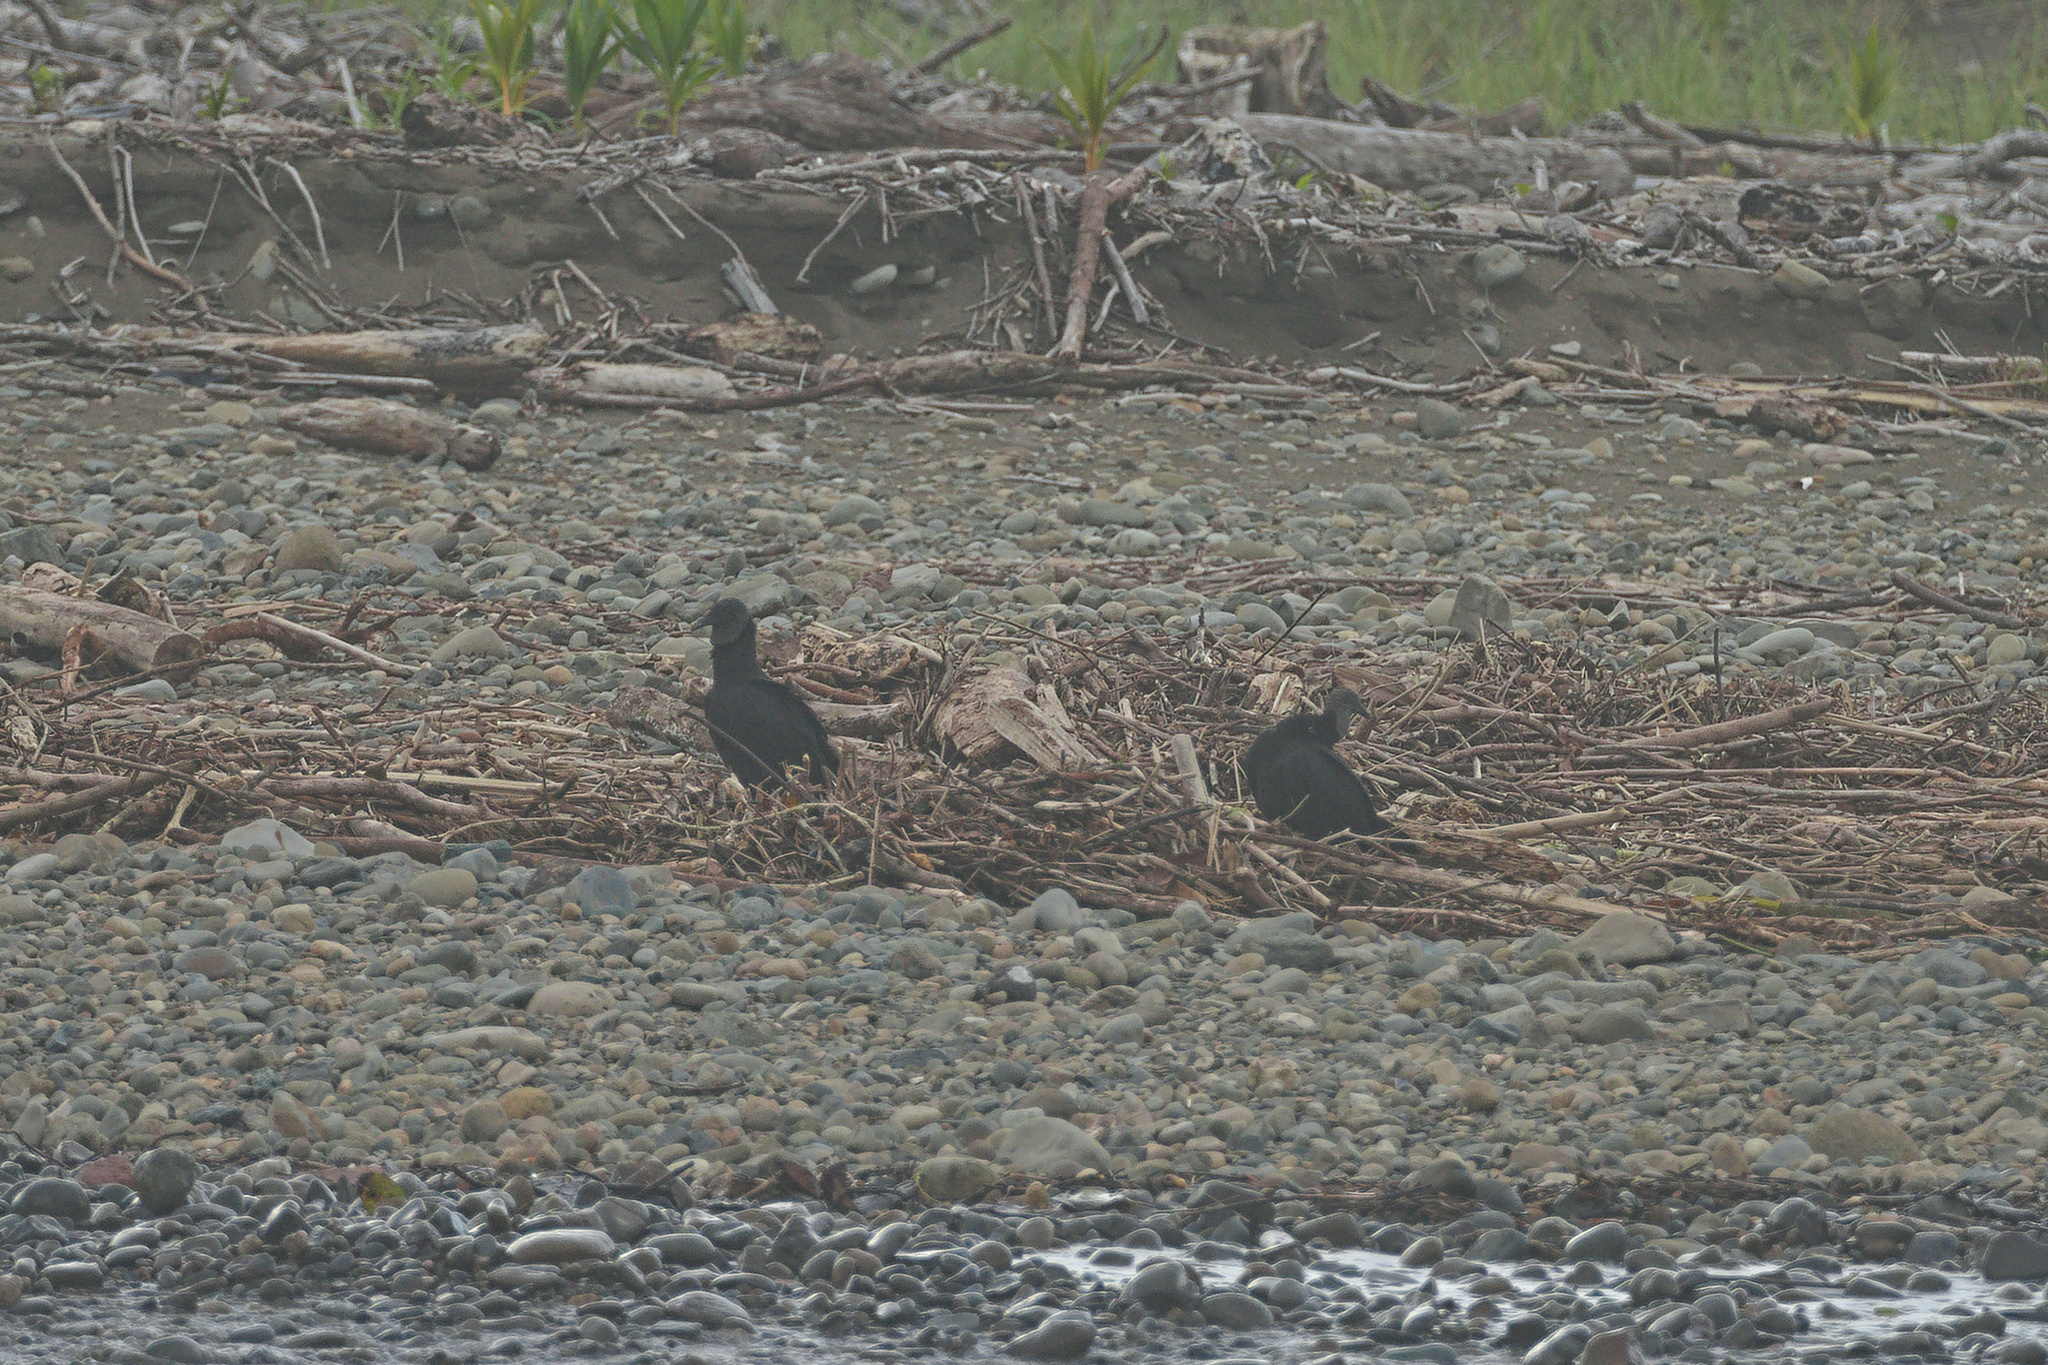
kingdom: Animalia
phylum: Chordata
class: Aves
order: Accipitriformes
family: Cathartidae
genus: Coragyps
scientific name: Coragyps atratus
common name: Black vulture
